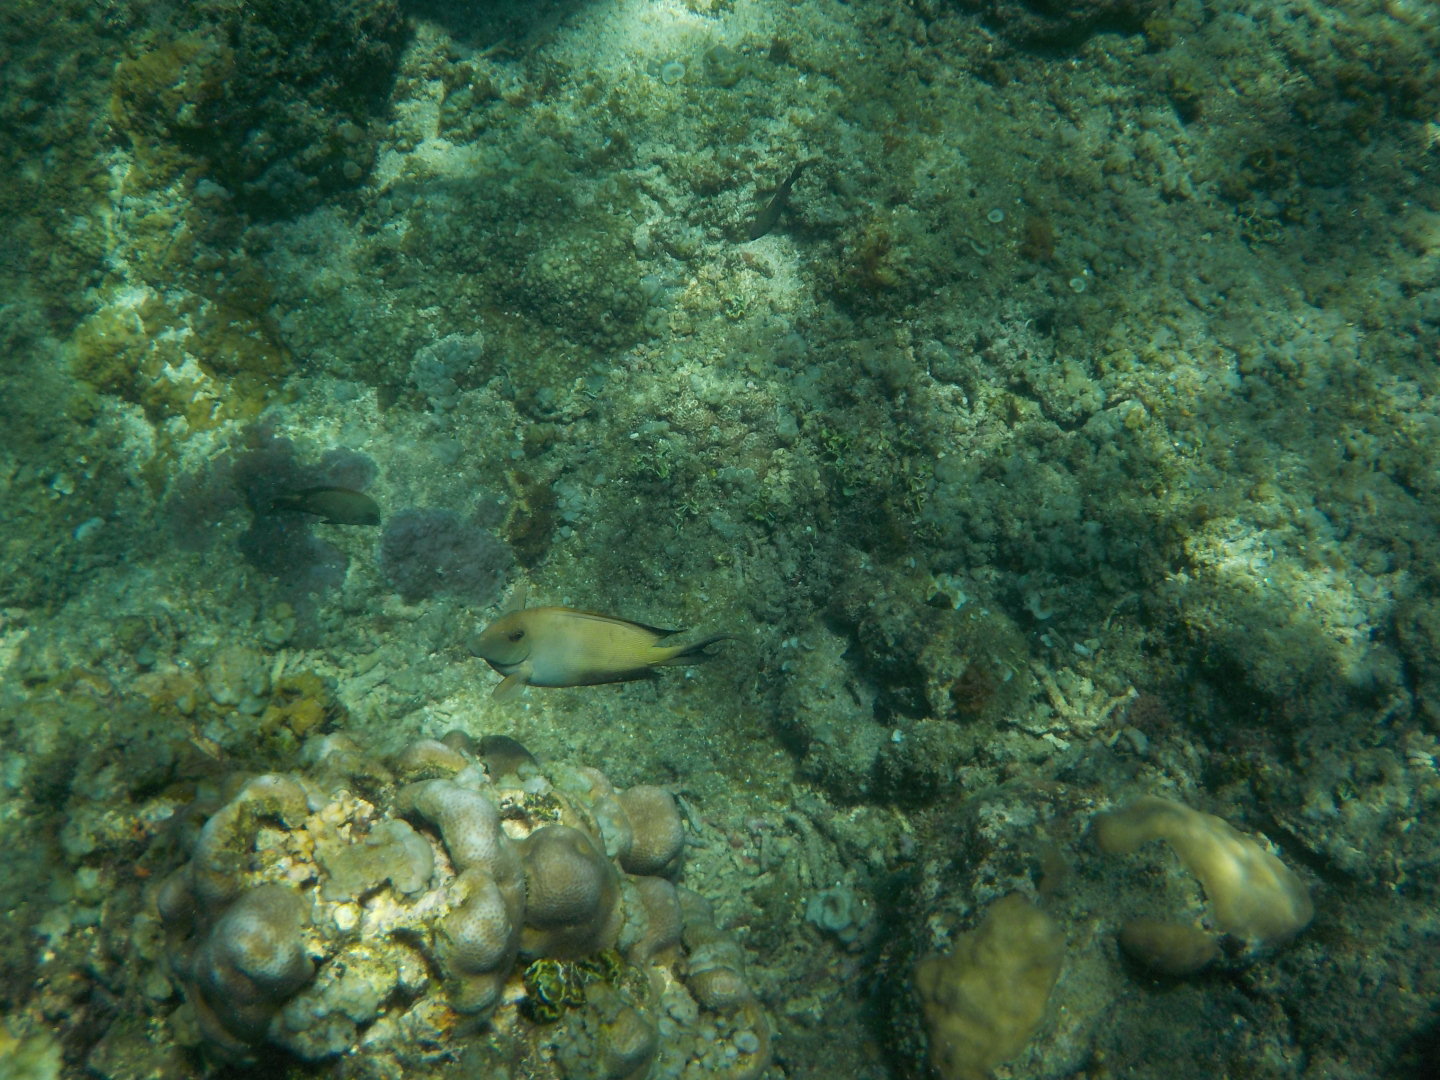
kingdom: Animalia
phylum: Chordata
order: Perciformes
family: Acanthuridae
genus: Ctenochaetus
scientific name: Ctenochaetus striatus
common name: Bristle-toothed surgeonfish
